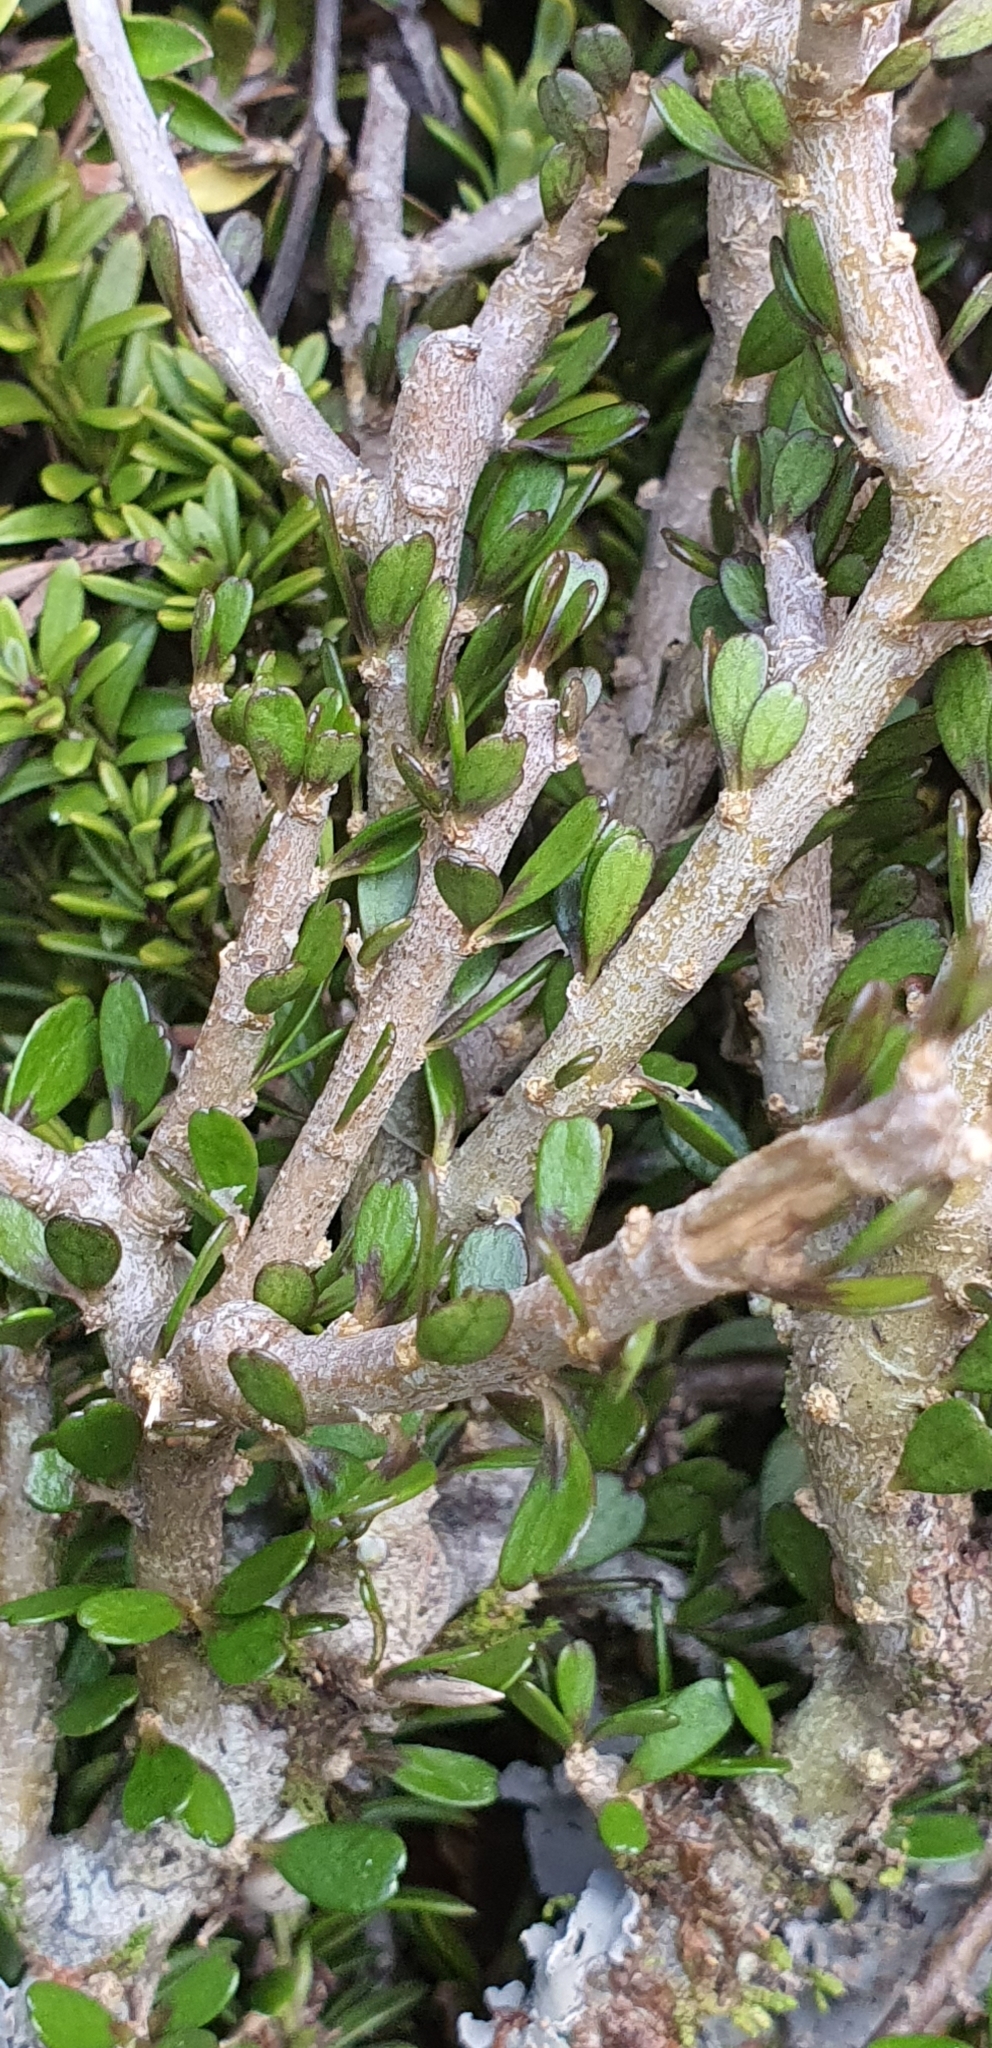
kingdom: Plantae
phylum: Tracheophyta
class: Magnoliopsida
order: Malpighiales
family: Violaceae
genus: Melicytus
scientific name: Melicytus alpinus
